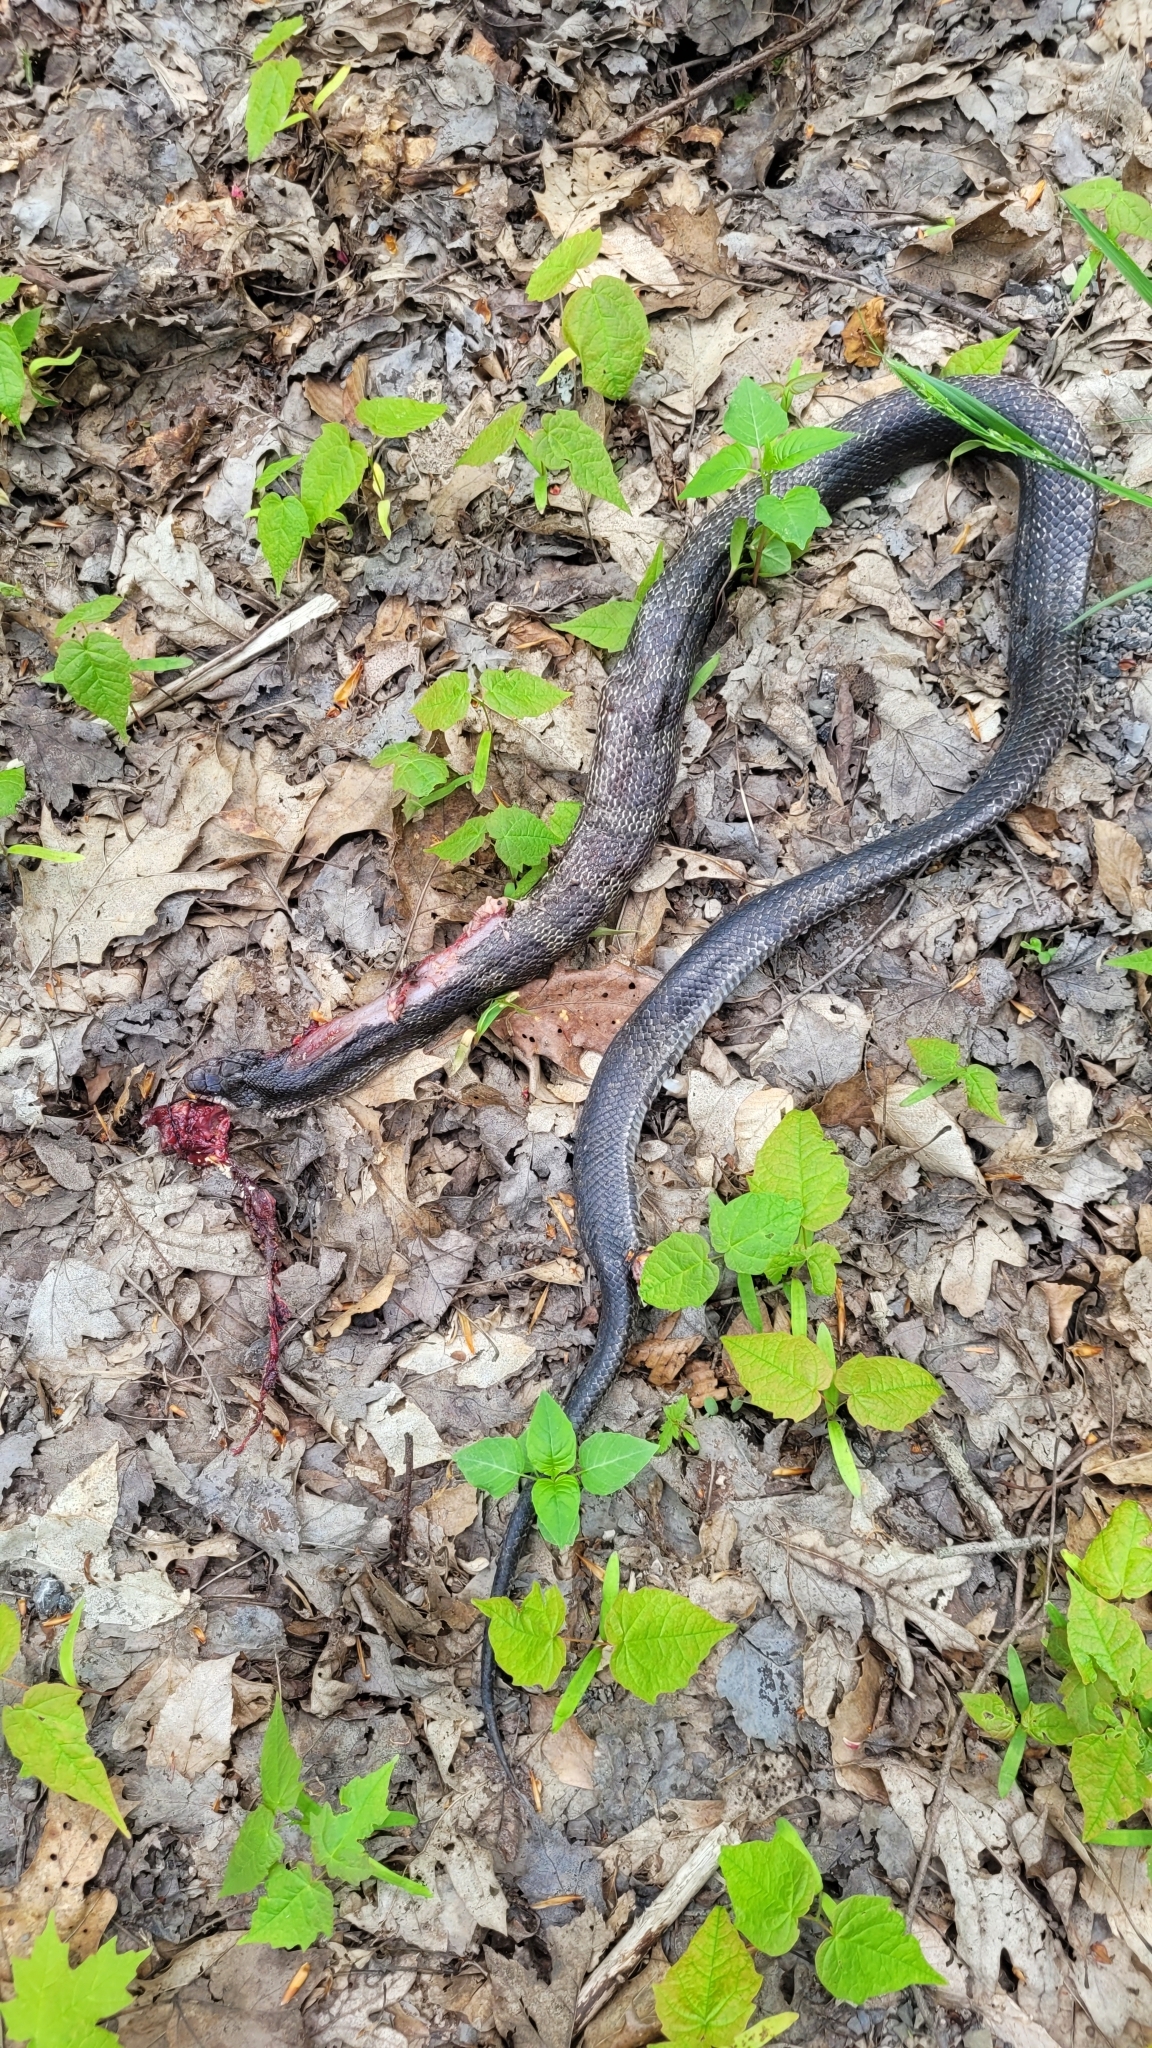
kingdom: Animalia
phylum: Chordata
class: Squamata
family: Colubridae
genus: Pantherophis
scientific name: Pantherophis spiloides
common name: Gray rat snake
